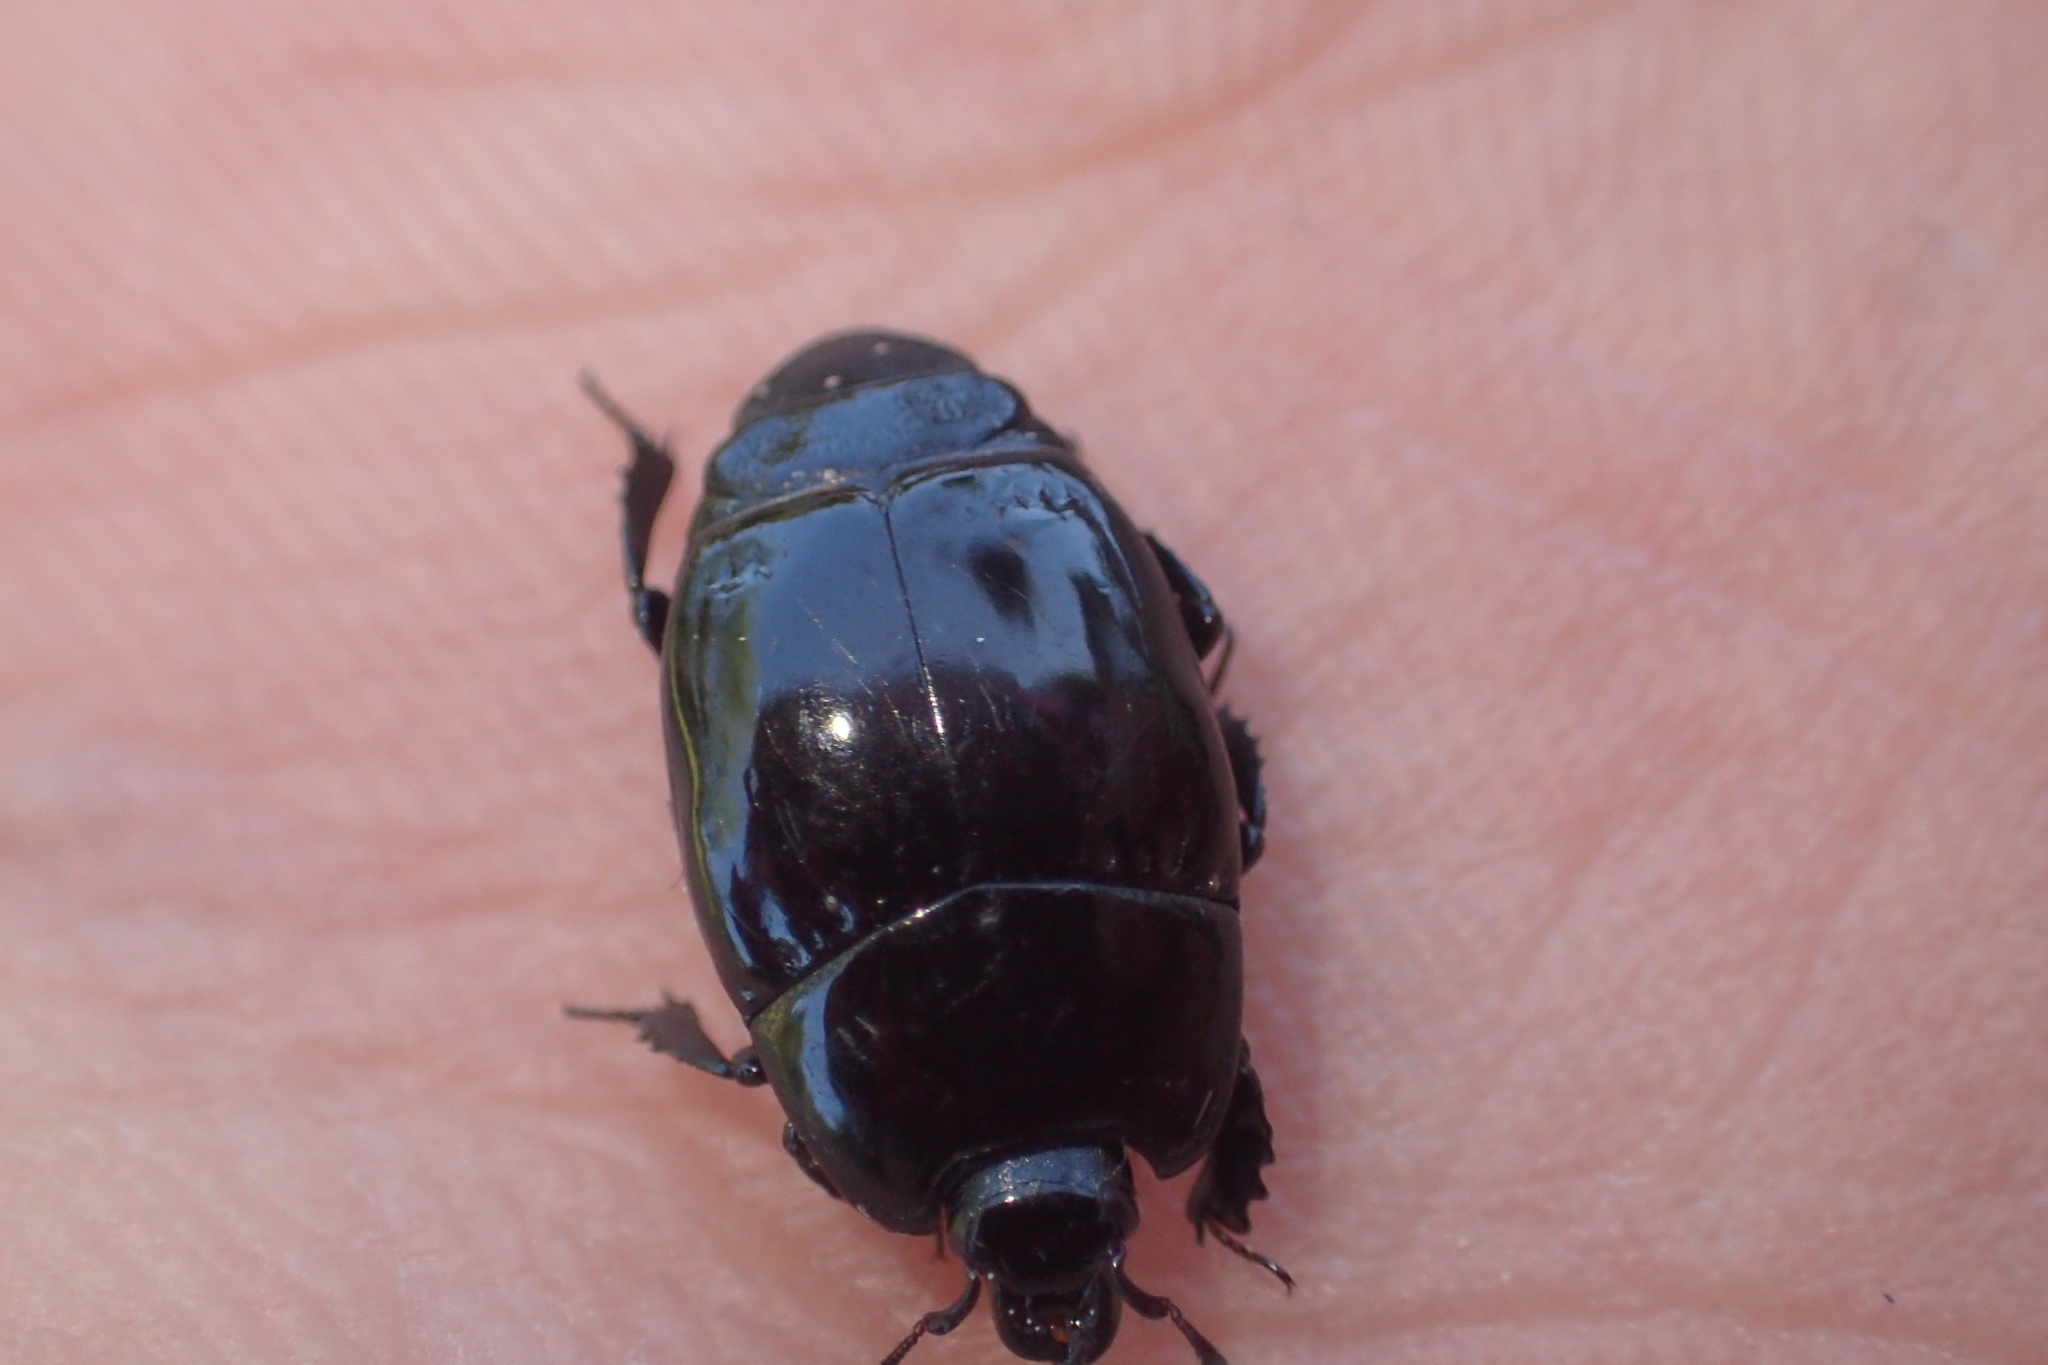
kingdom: Animalia
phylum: Arthropoda
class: Insecta
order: Coleoptera
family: Histeridae
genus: Aulacosternus
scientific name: Aulacosternus zelandicus
